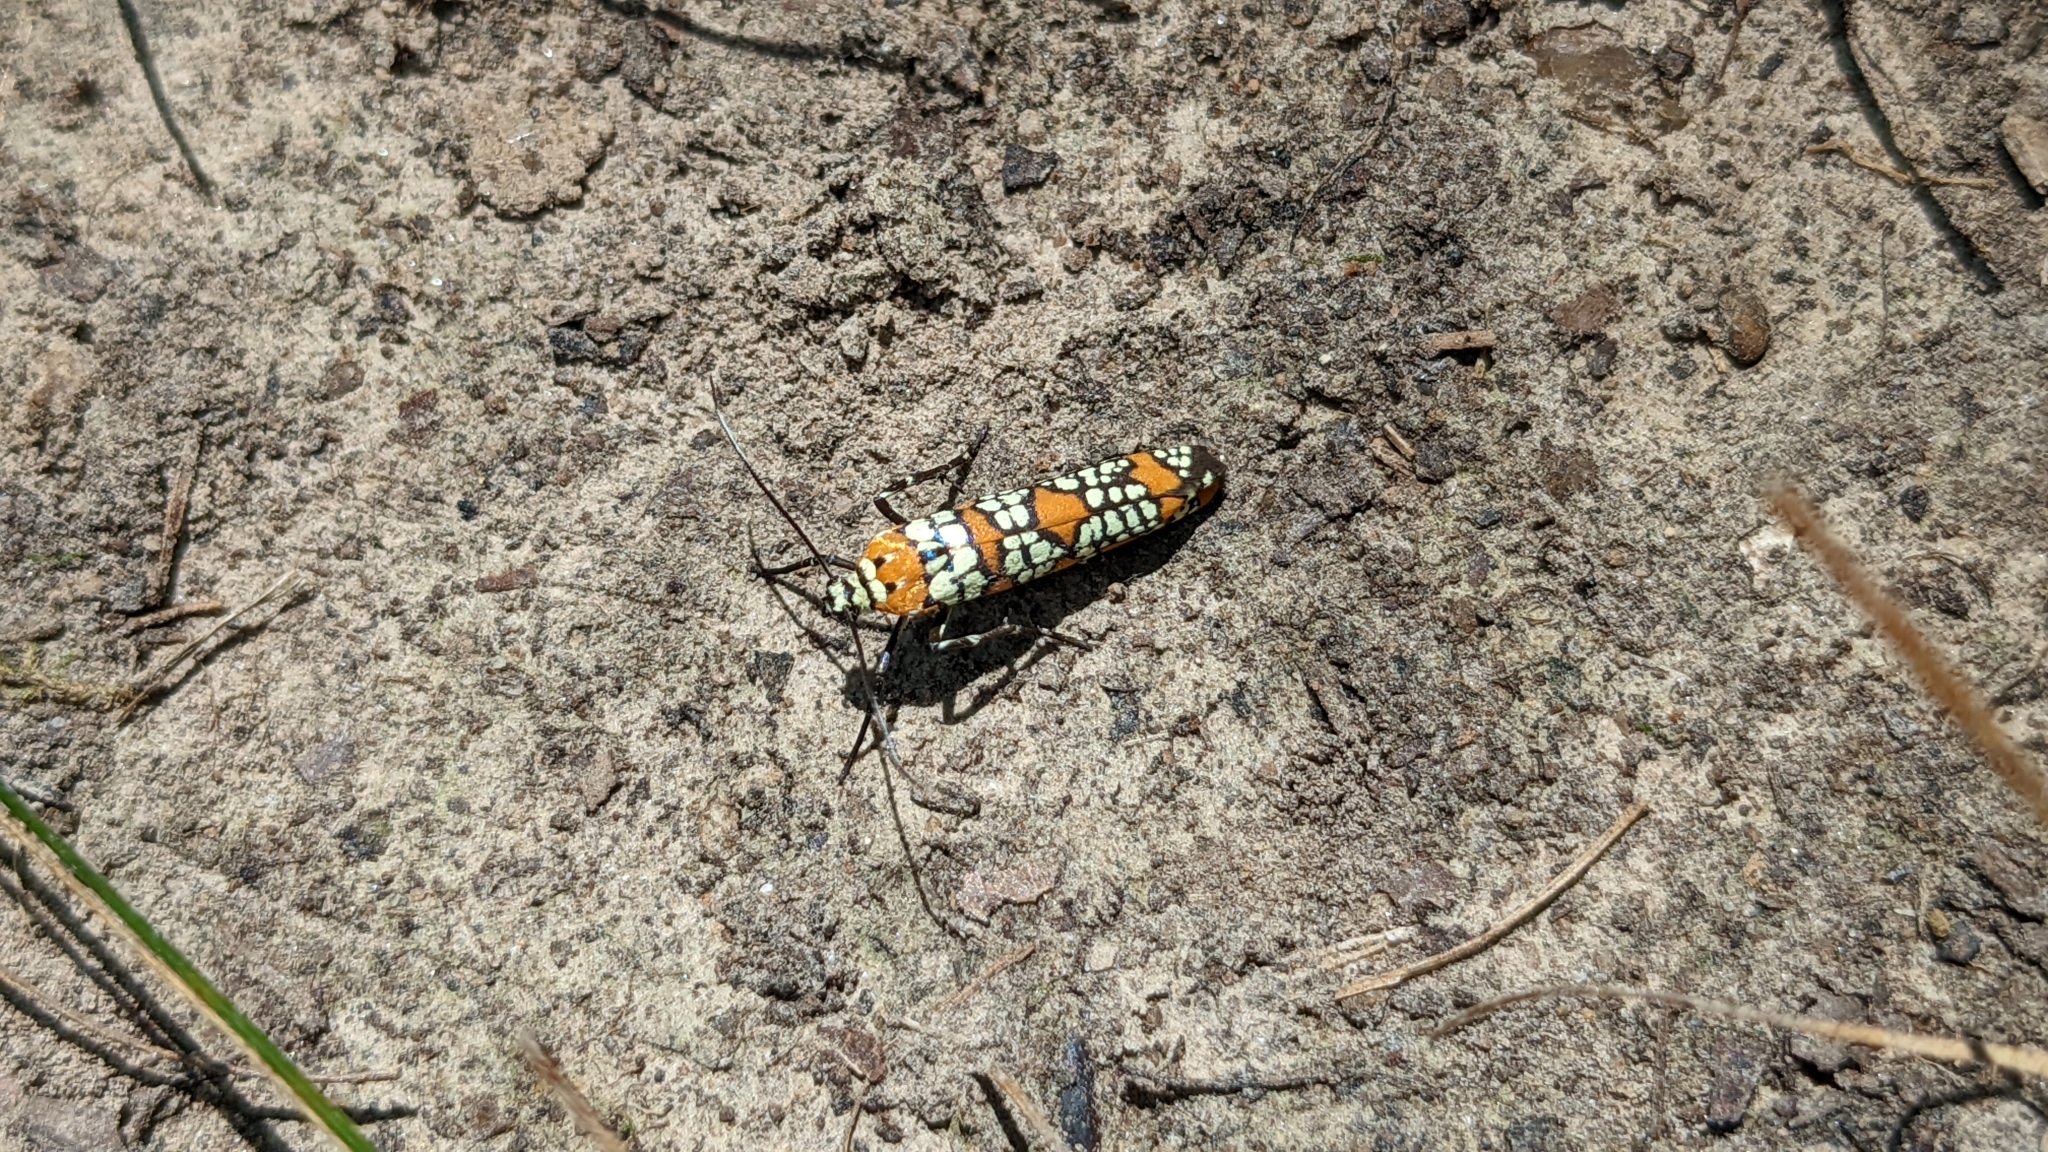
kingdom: Animalia
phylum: Arthropoda
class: Insecta
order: Lepidoptera
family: Attevidae
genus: Atteva
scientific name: Atteva punctella
